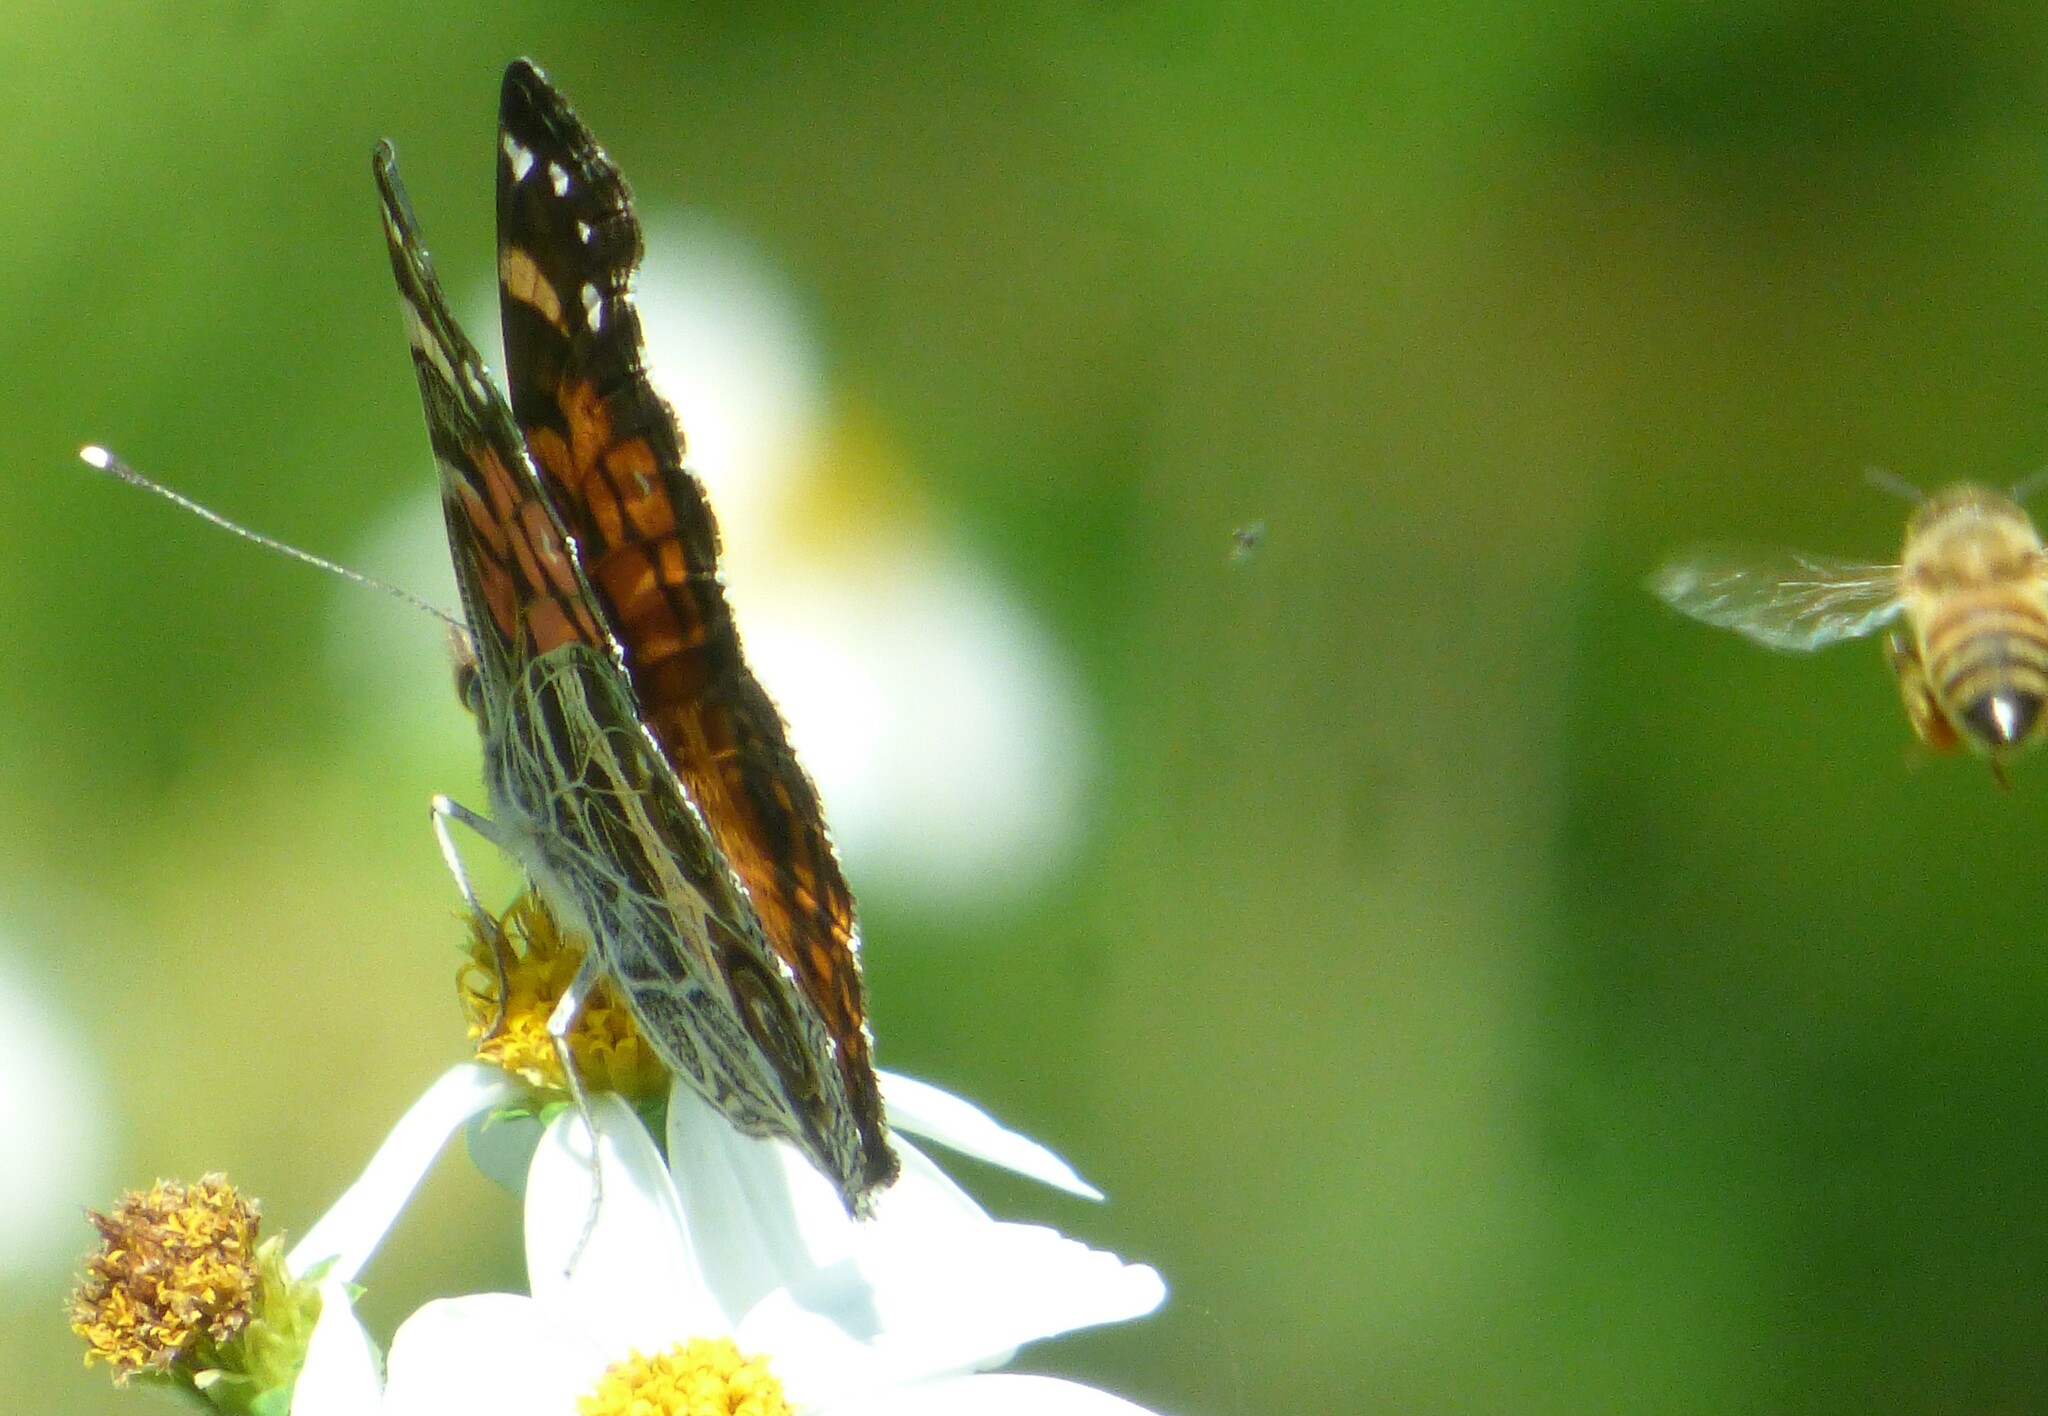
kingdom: Animalia
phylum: Arthropoda
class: Insecta
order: Lepidoptera
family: Nymphalidae
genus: Vanessa
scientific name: Vanessa virginiensis
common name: American lady
